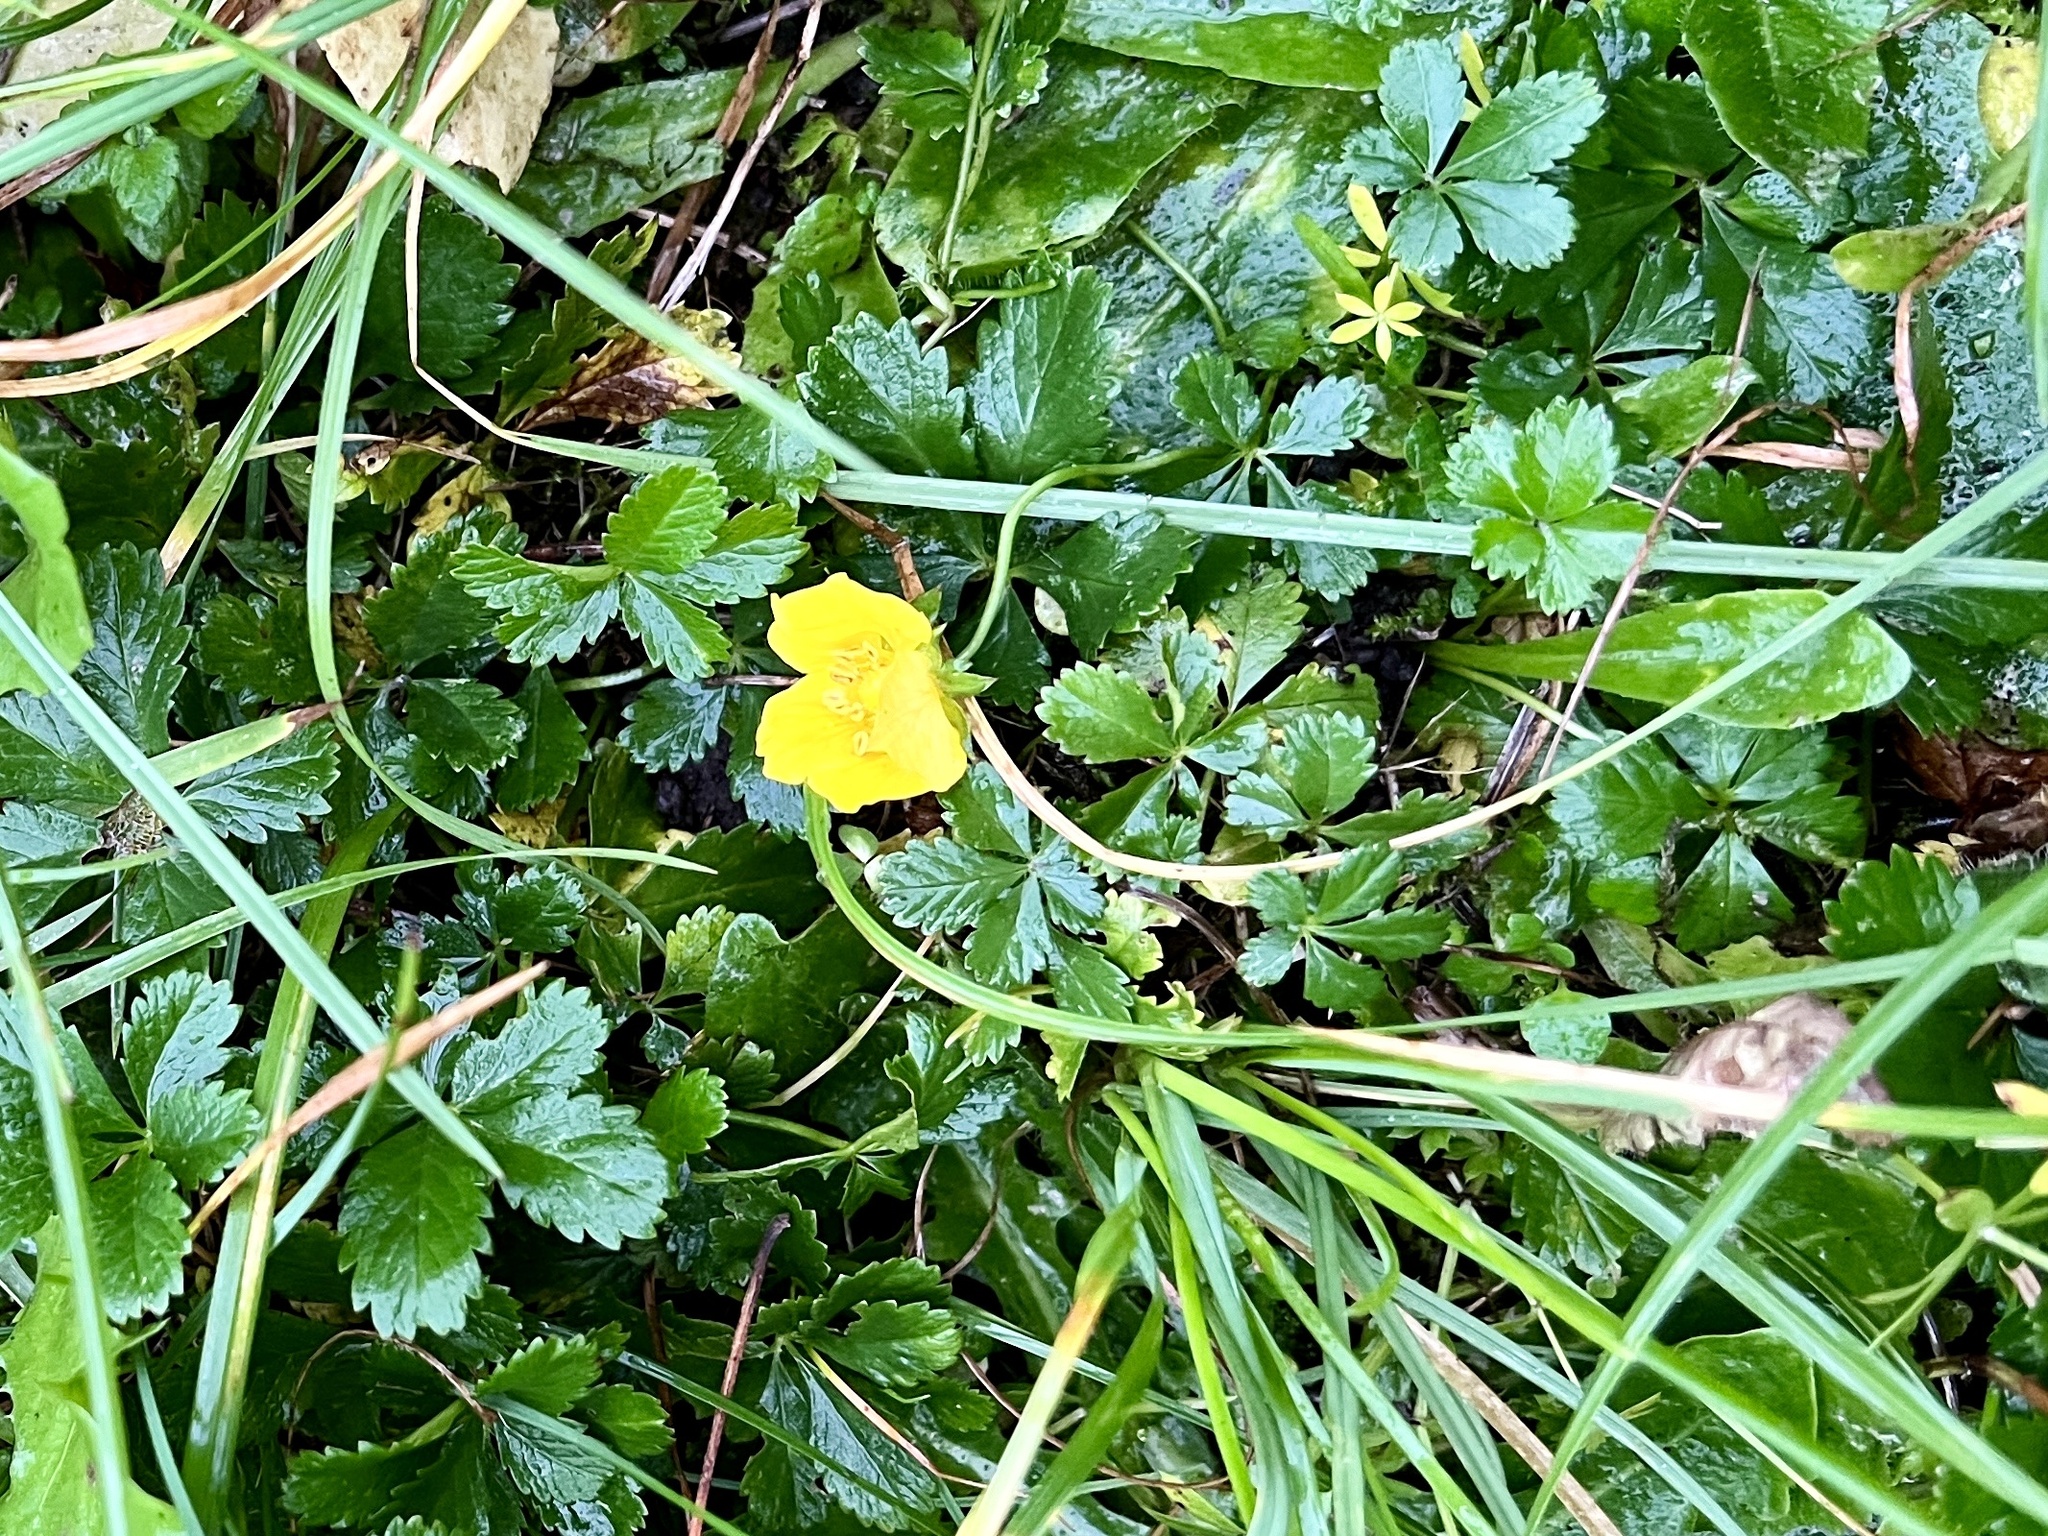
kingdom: Plantae
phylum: Tracheophyta
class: Magnoliopsida
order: Rosales
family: Rosaceae
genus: Potentilla
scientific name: Potentilla reptans
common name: Creeping cinquefoil
